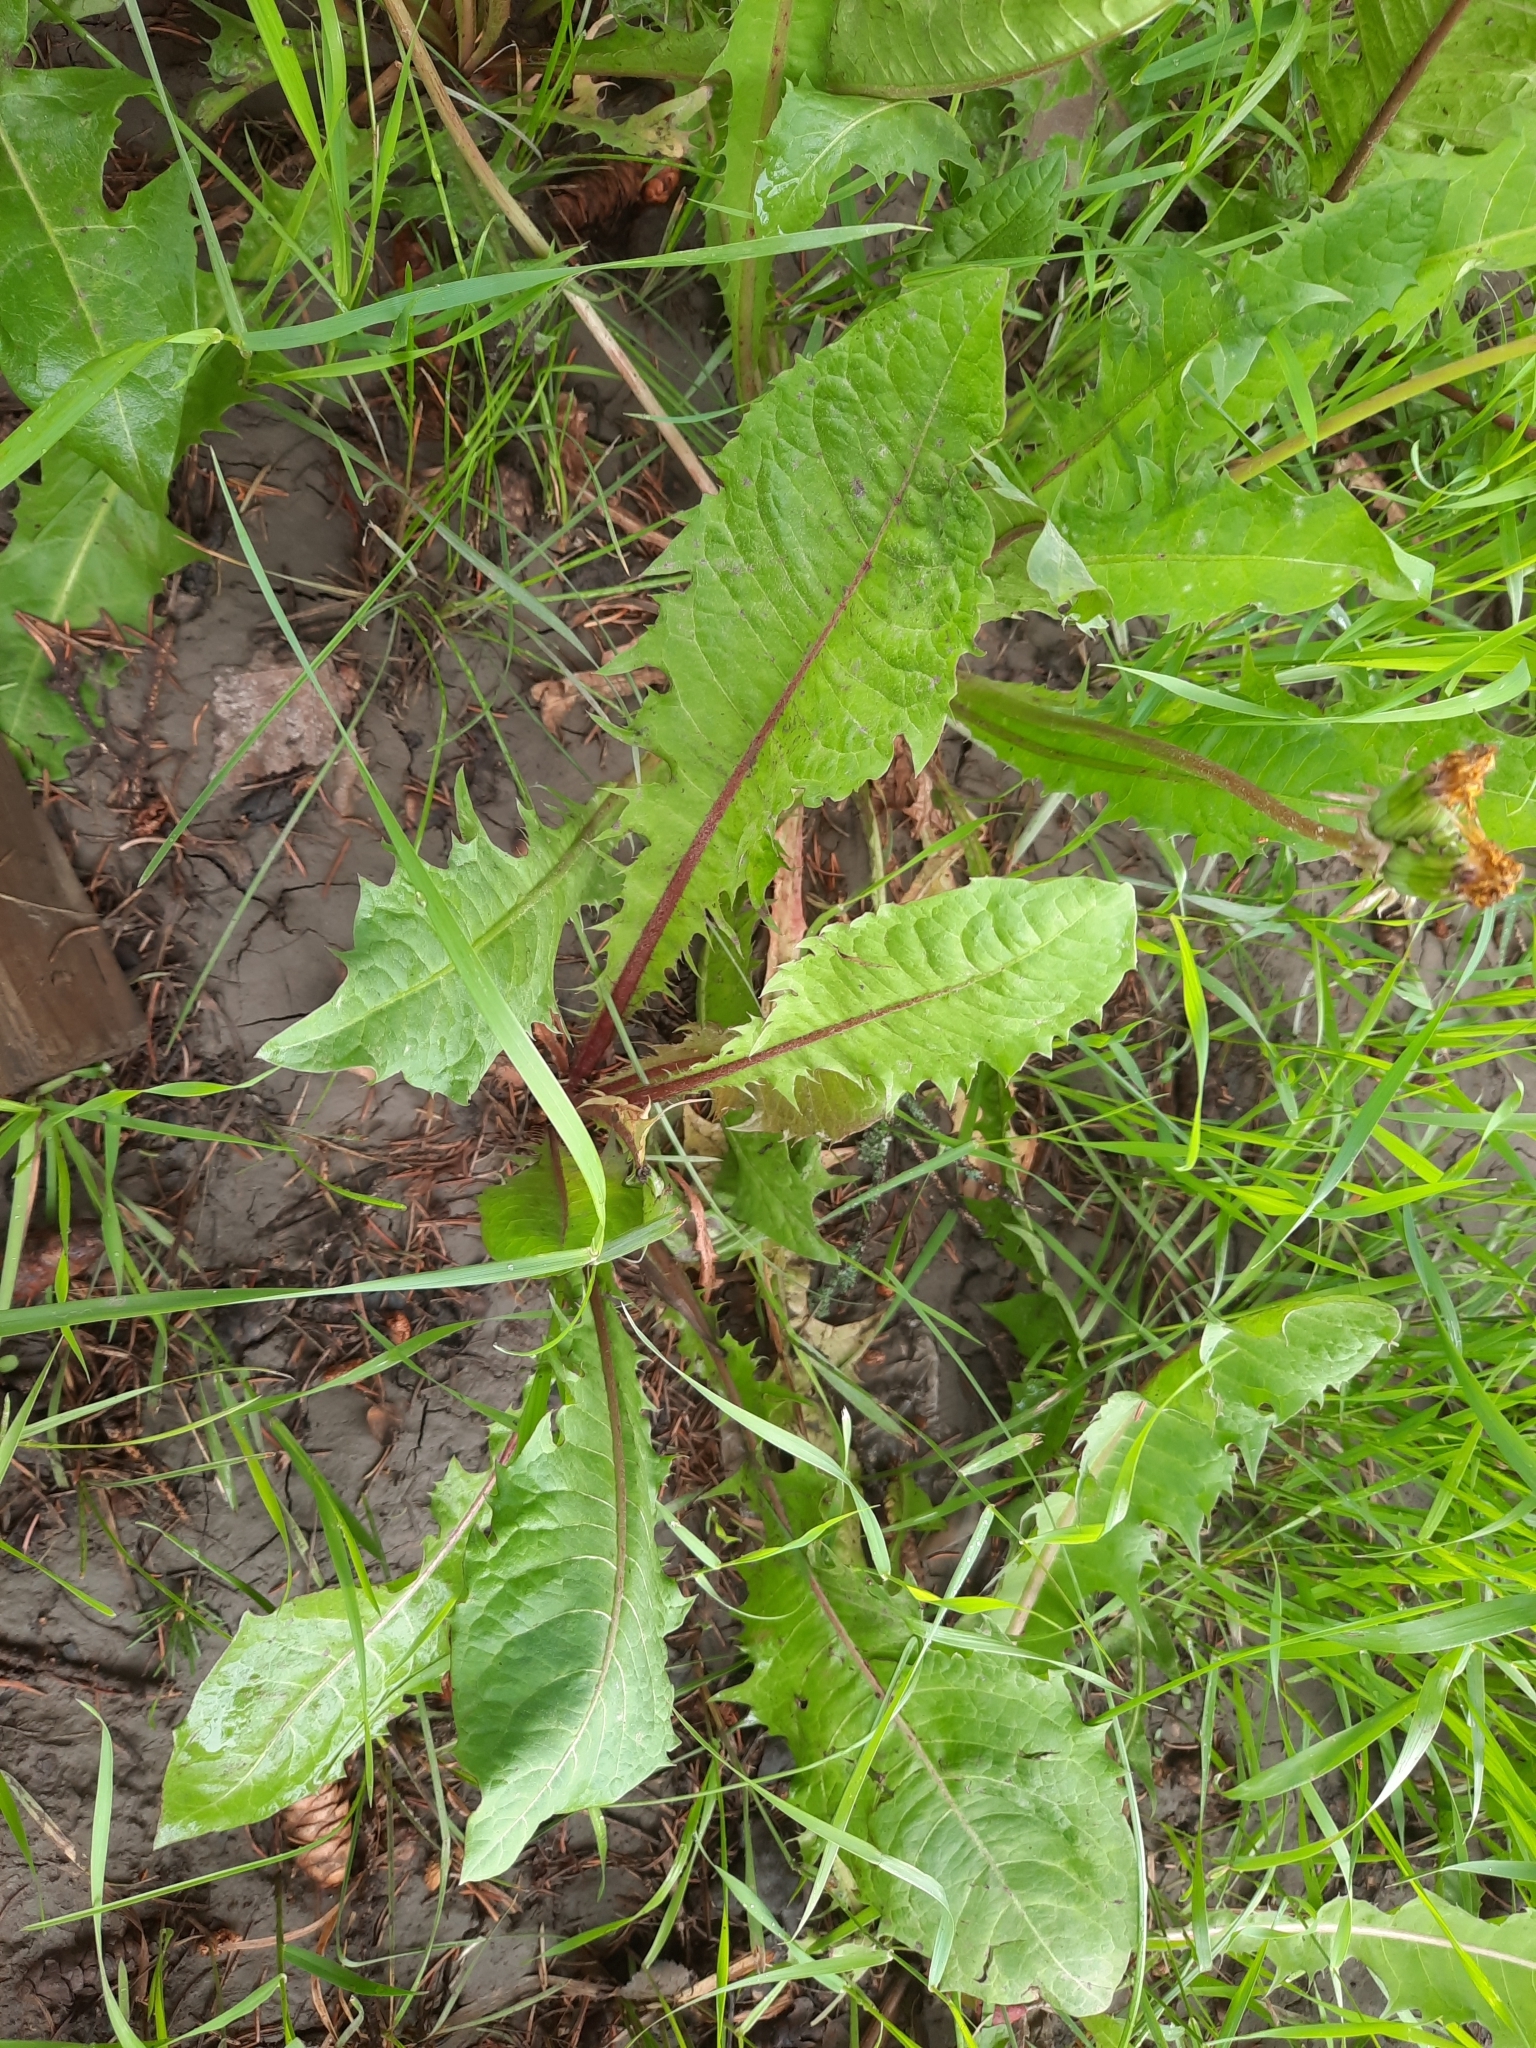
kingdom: Plantae
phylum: Tracheophyta
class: Magnoliopsida
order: Asterales
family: Asteraceae
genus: Taraxacum
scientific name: Taraxacum officinale
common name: Common dandelion
